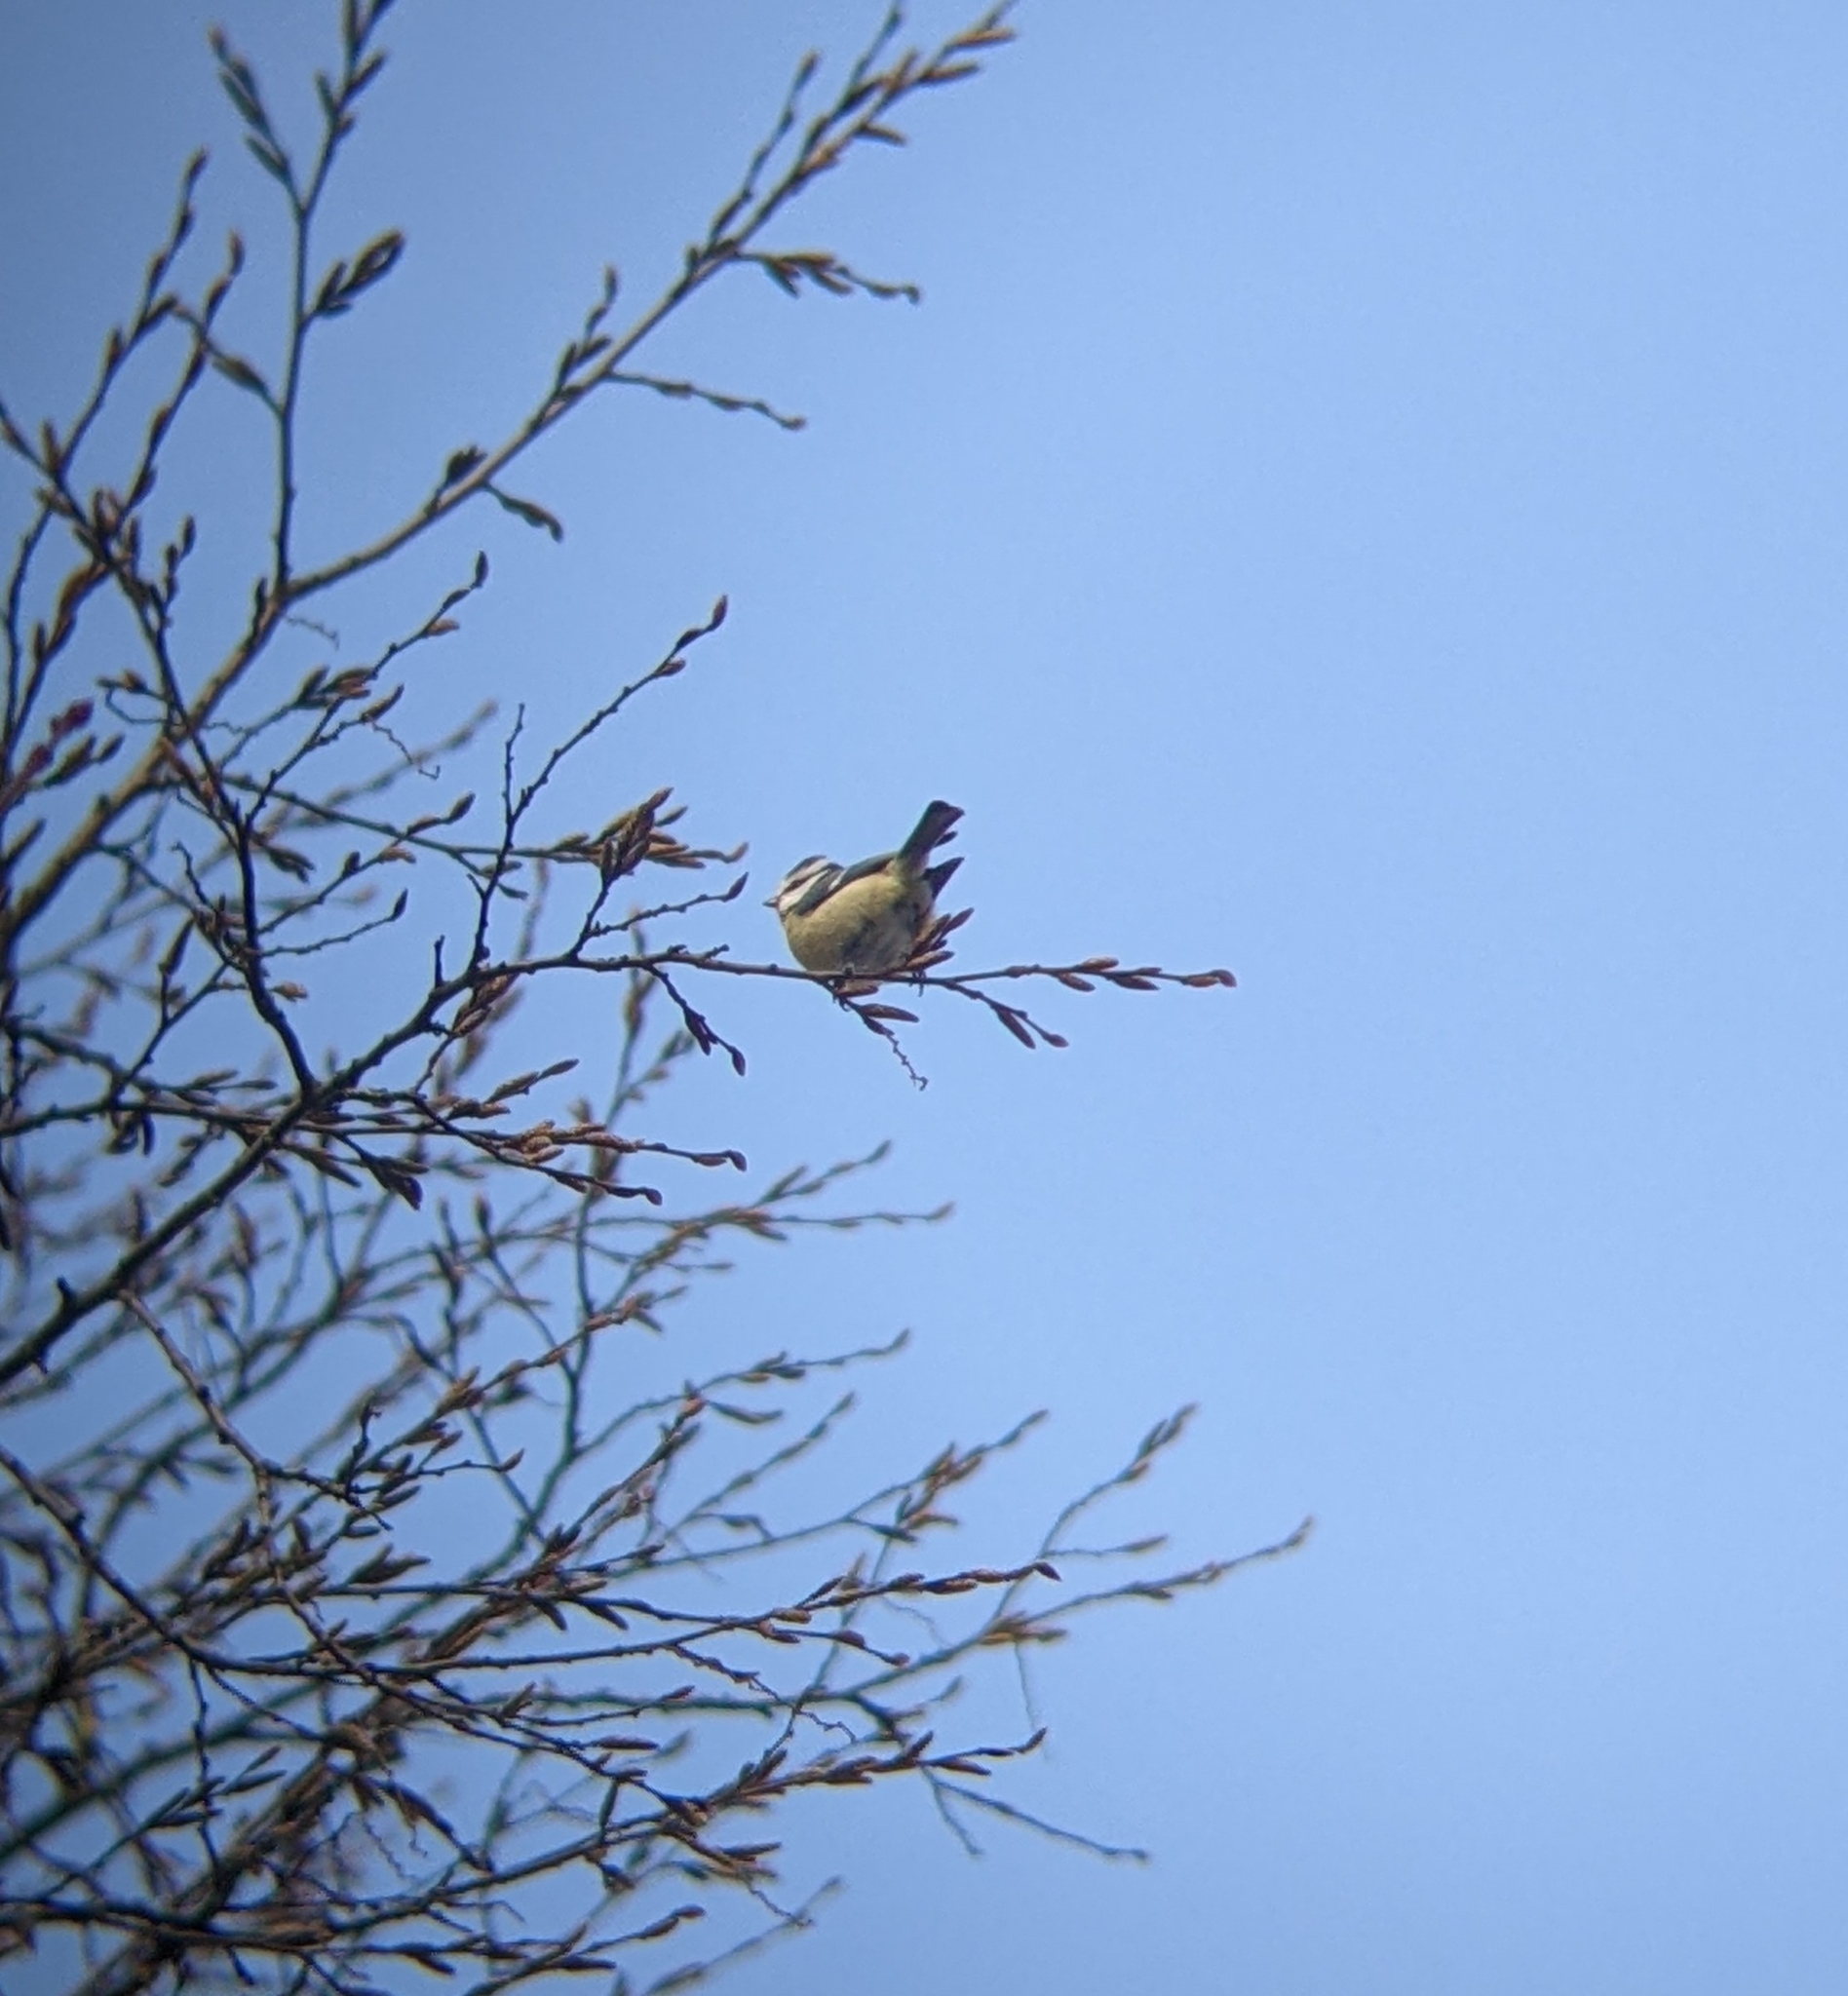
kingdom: Animalia
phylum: Chordata
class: Aves
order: Passeriformes
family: Paridae
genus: Cyanistes
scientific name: Cyanistes caeruleus
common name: Eurasian blue tit
